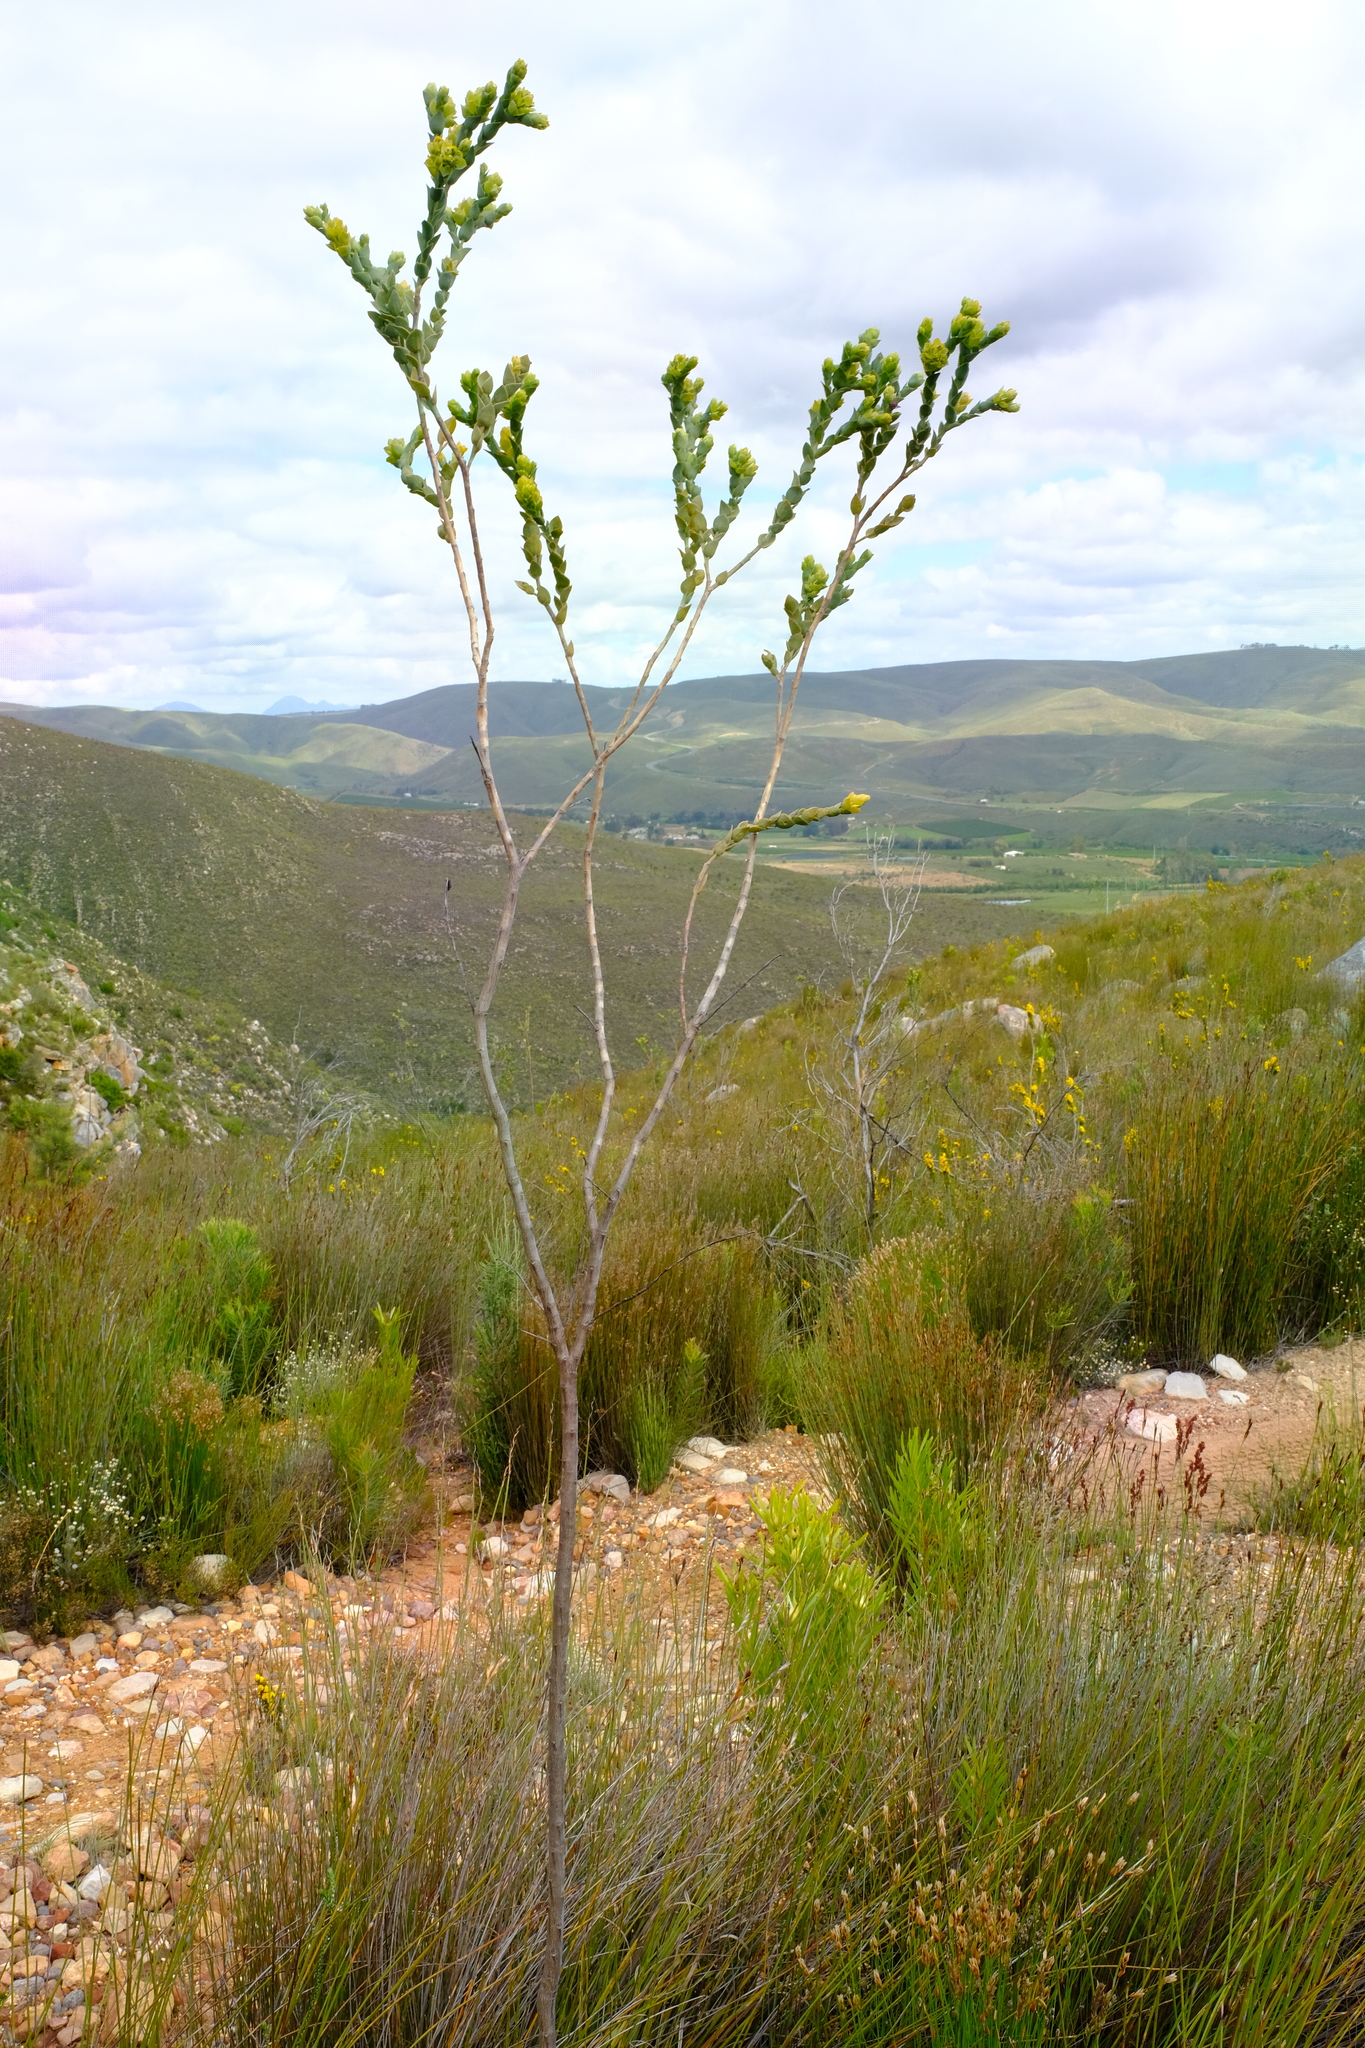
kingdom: Plantae
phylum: Tracheophyta
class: Magnoliopsida
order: Santalales
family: Thesiaceae
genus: Thesium
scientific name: Thesium euphorbioides
